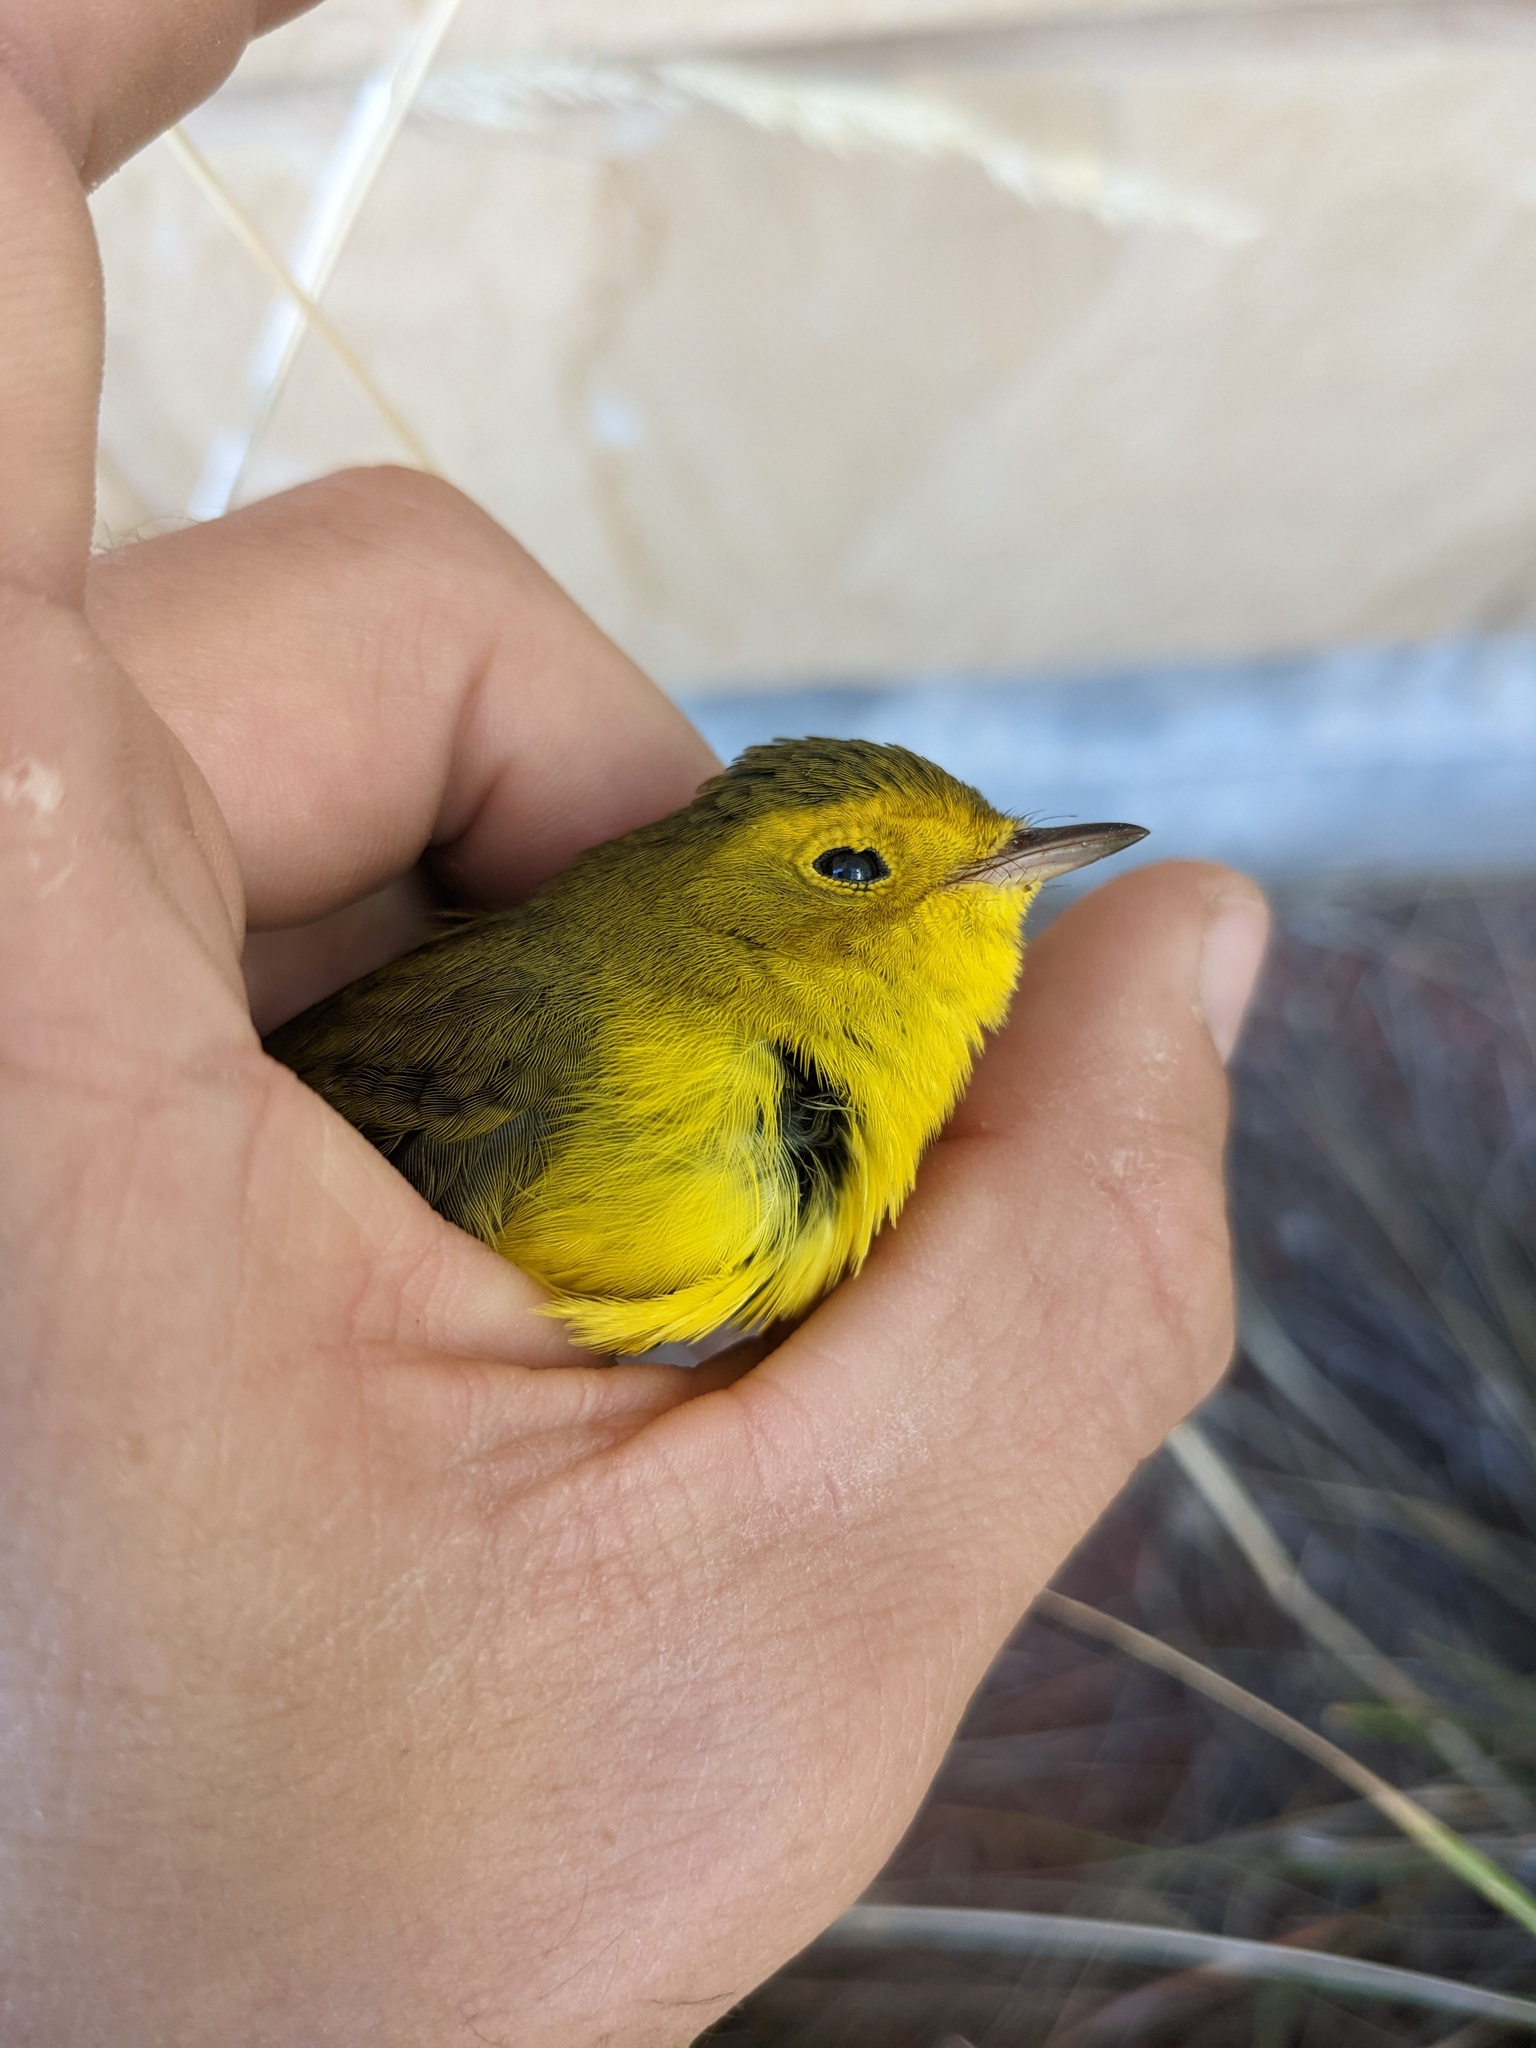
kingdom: Animalia
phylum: Chordata
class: Aves
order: Passeriformes
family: Parulidae
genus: Cardellina
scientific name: Cardellina pusilla
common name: Wilson's warbler
